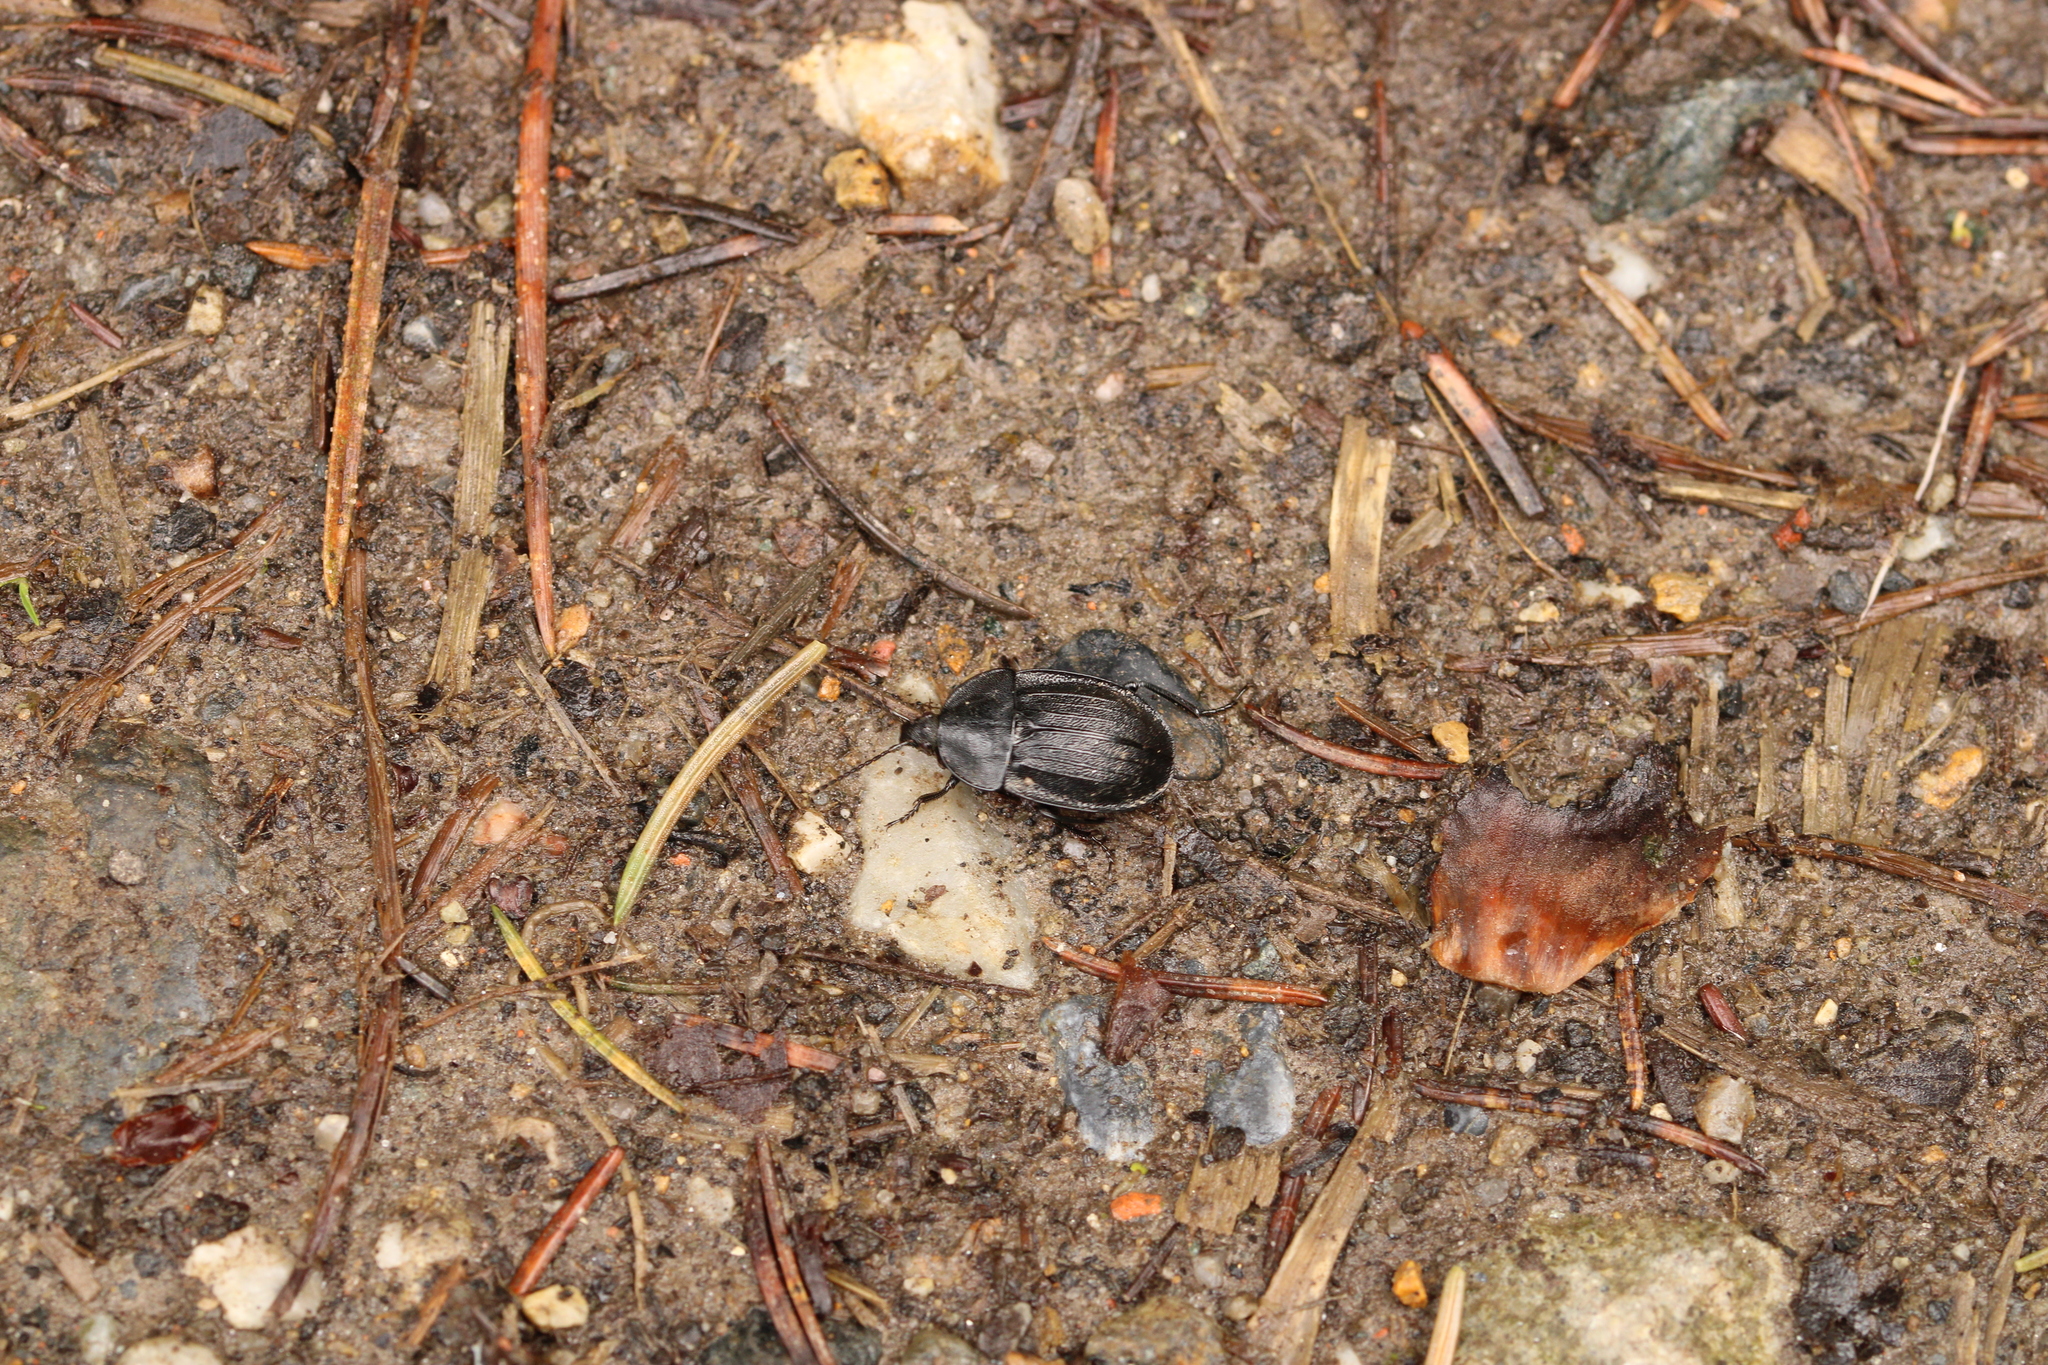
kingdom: Animalia
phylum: Arthropoda
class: Insecta
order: Coleoptera
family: Staphylinidae
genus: Silpha
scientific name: Silpha atrata
